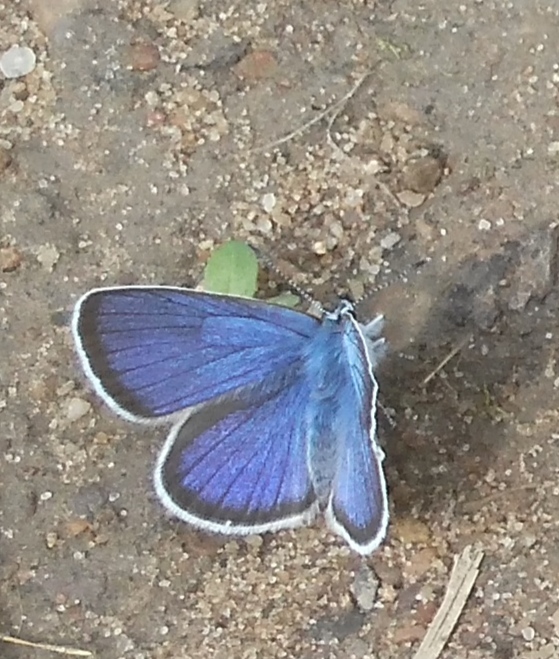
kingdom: Animalia
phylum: Arthropoda
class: Insecta
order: Lepidoptera
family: Lycaenidae
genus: Cyaniris
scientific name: Cyaniris semiargus
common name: Mazarine blue
